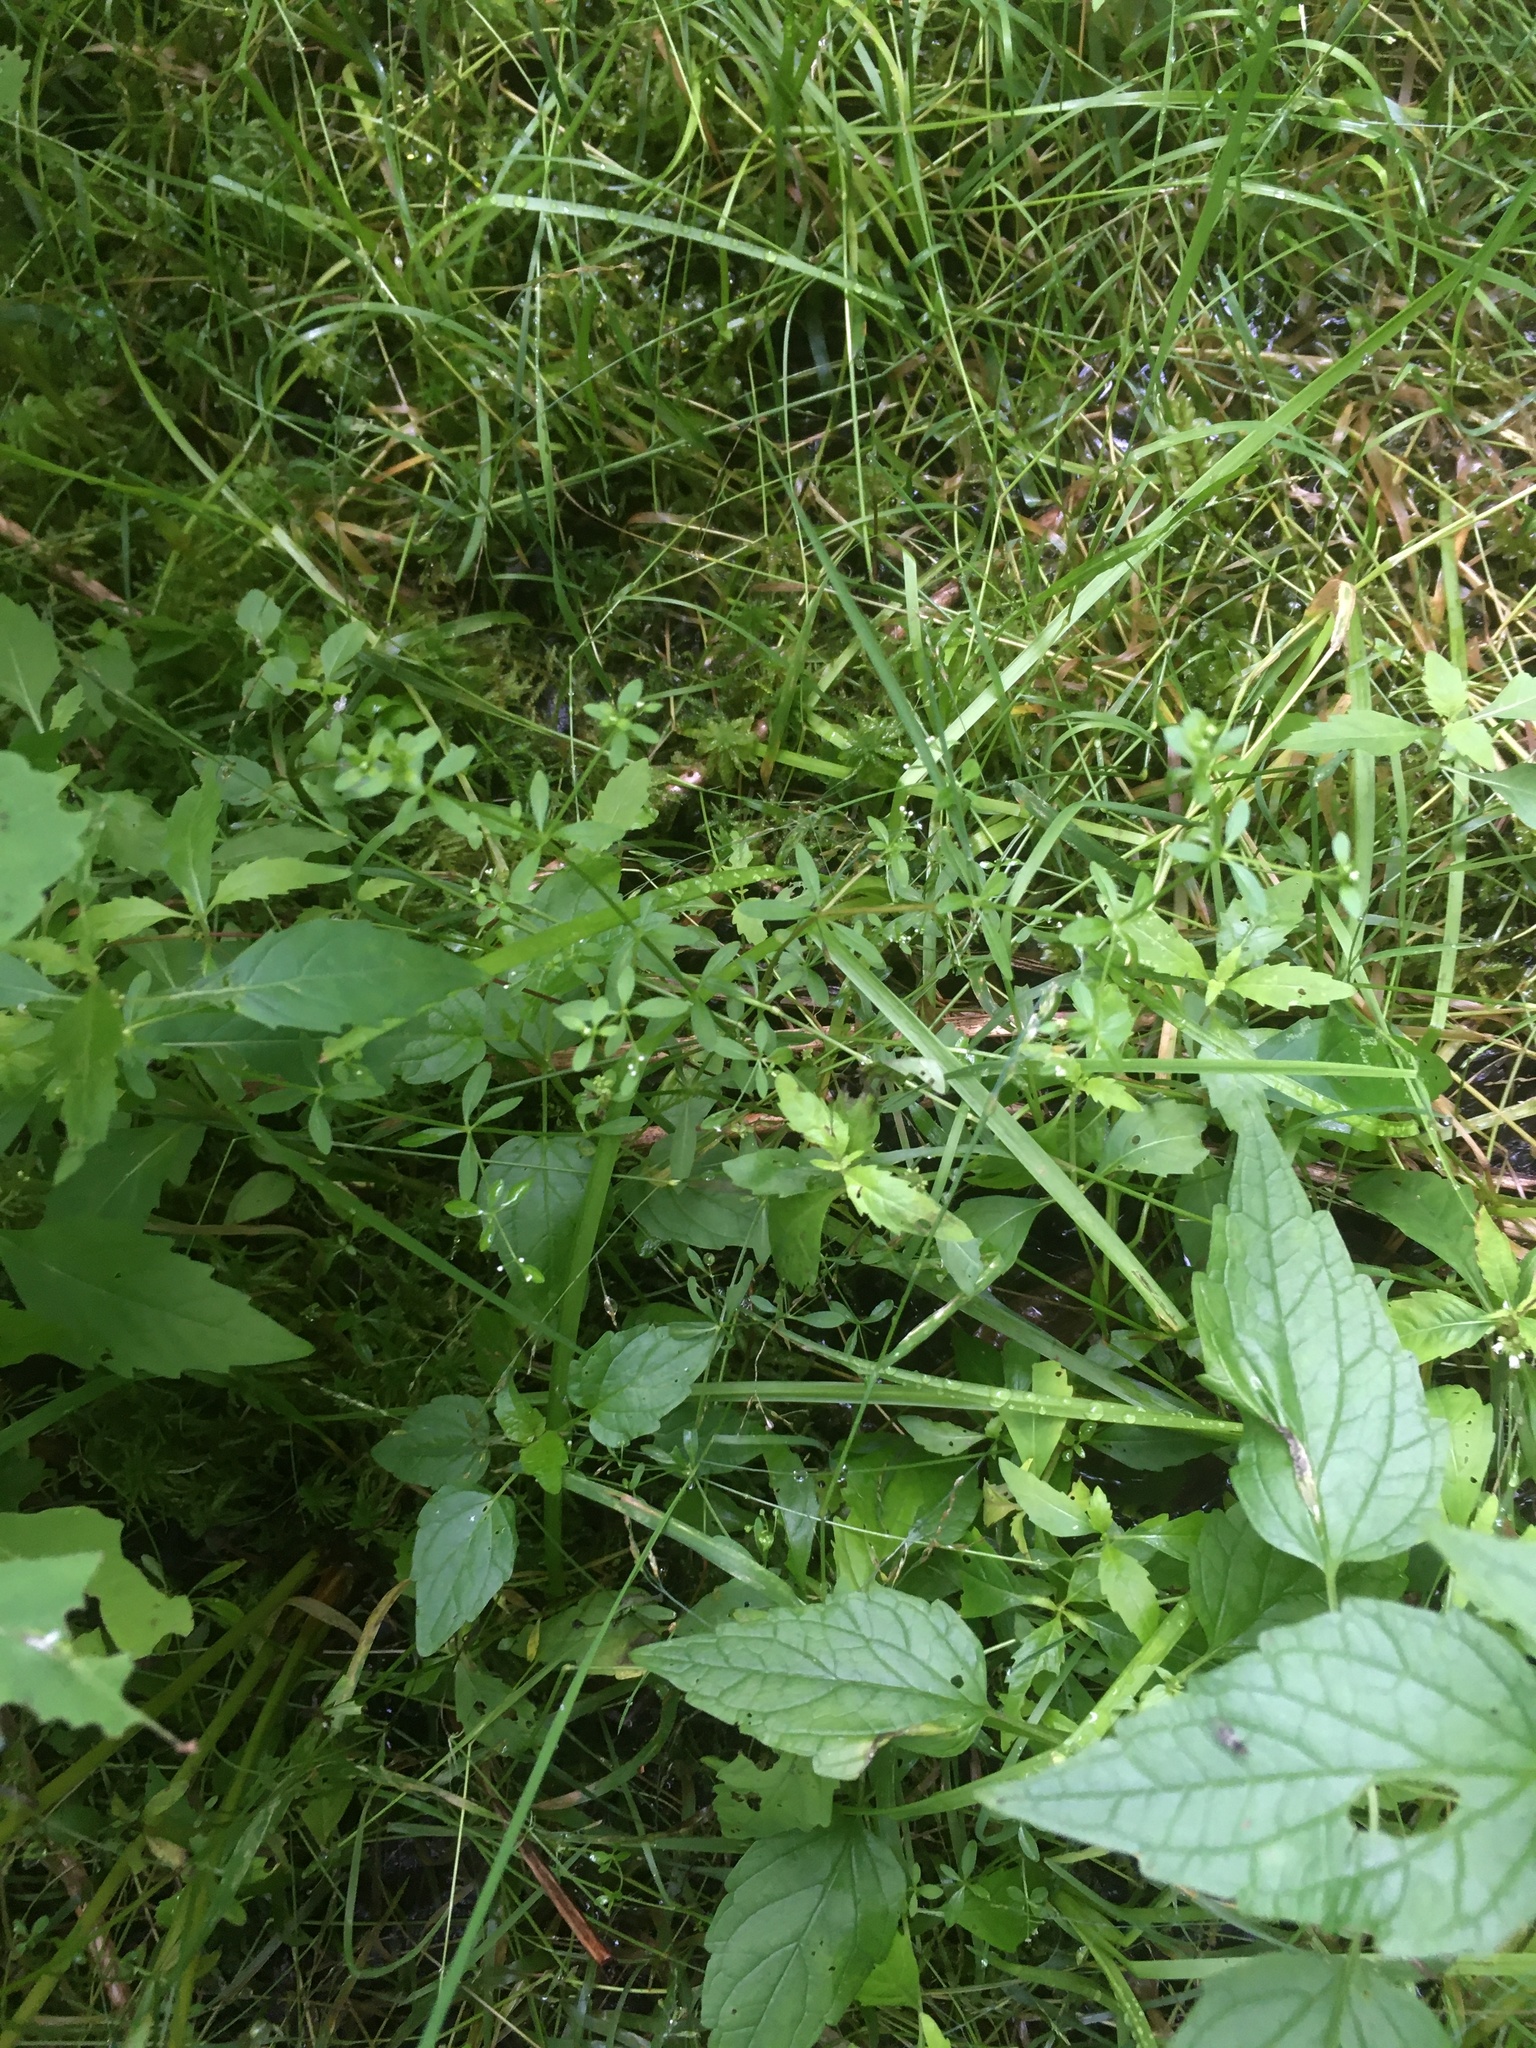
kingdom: Plantae
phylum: Tracheophyta
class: Magnoliopsida
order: Gentianales
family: Rubiaceae
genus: Galium
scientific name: Galium palustre
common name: Common marsh-bedstraw
